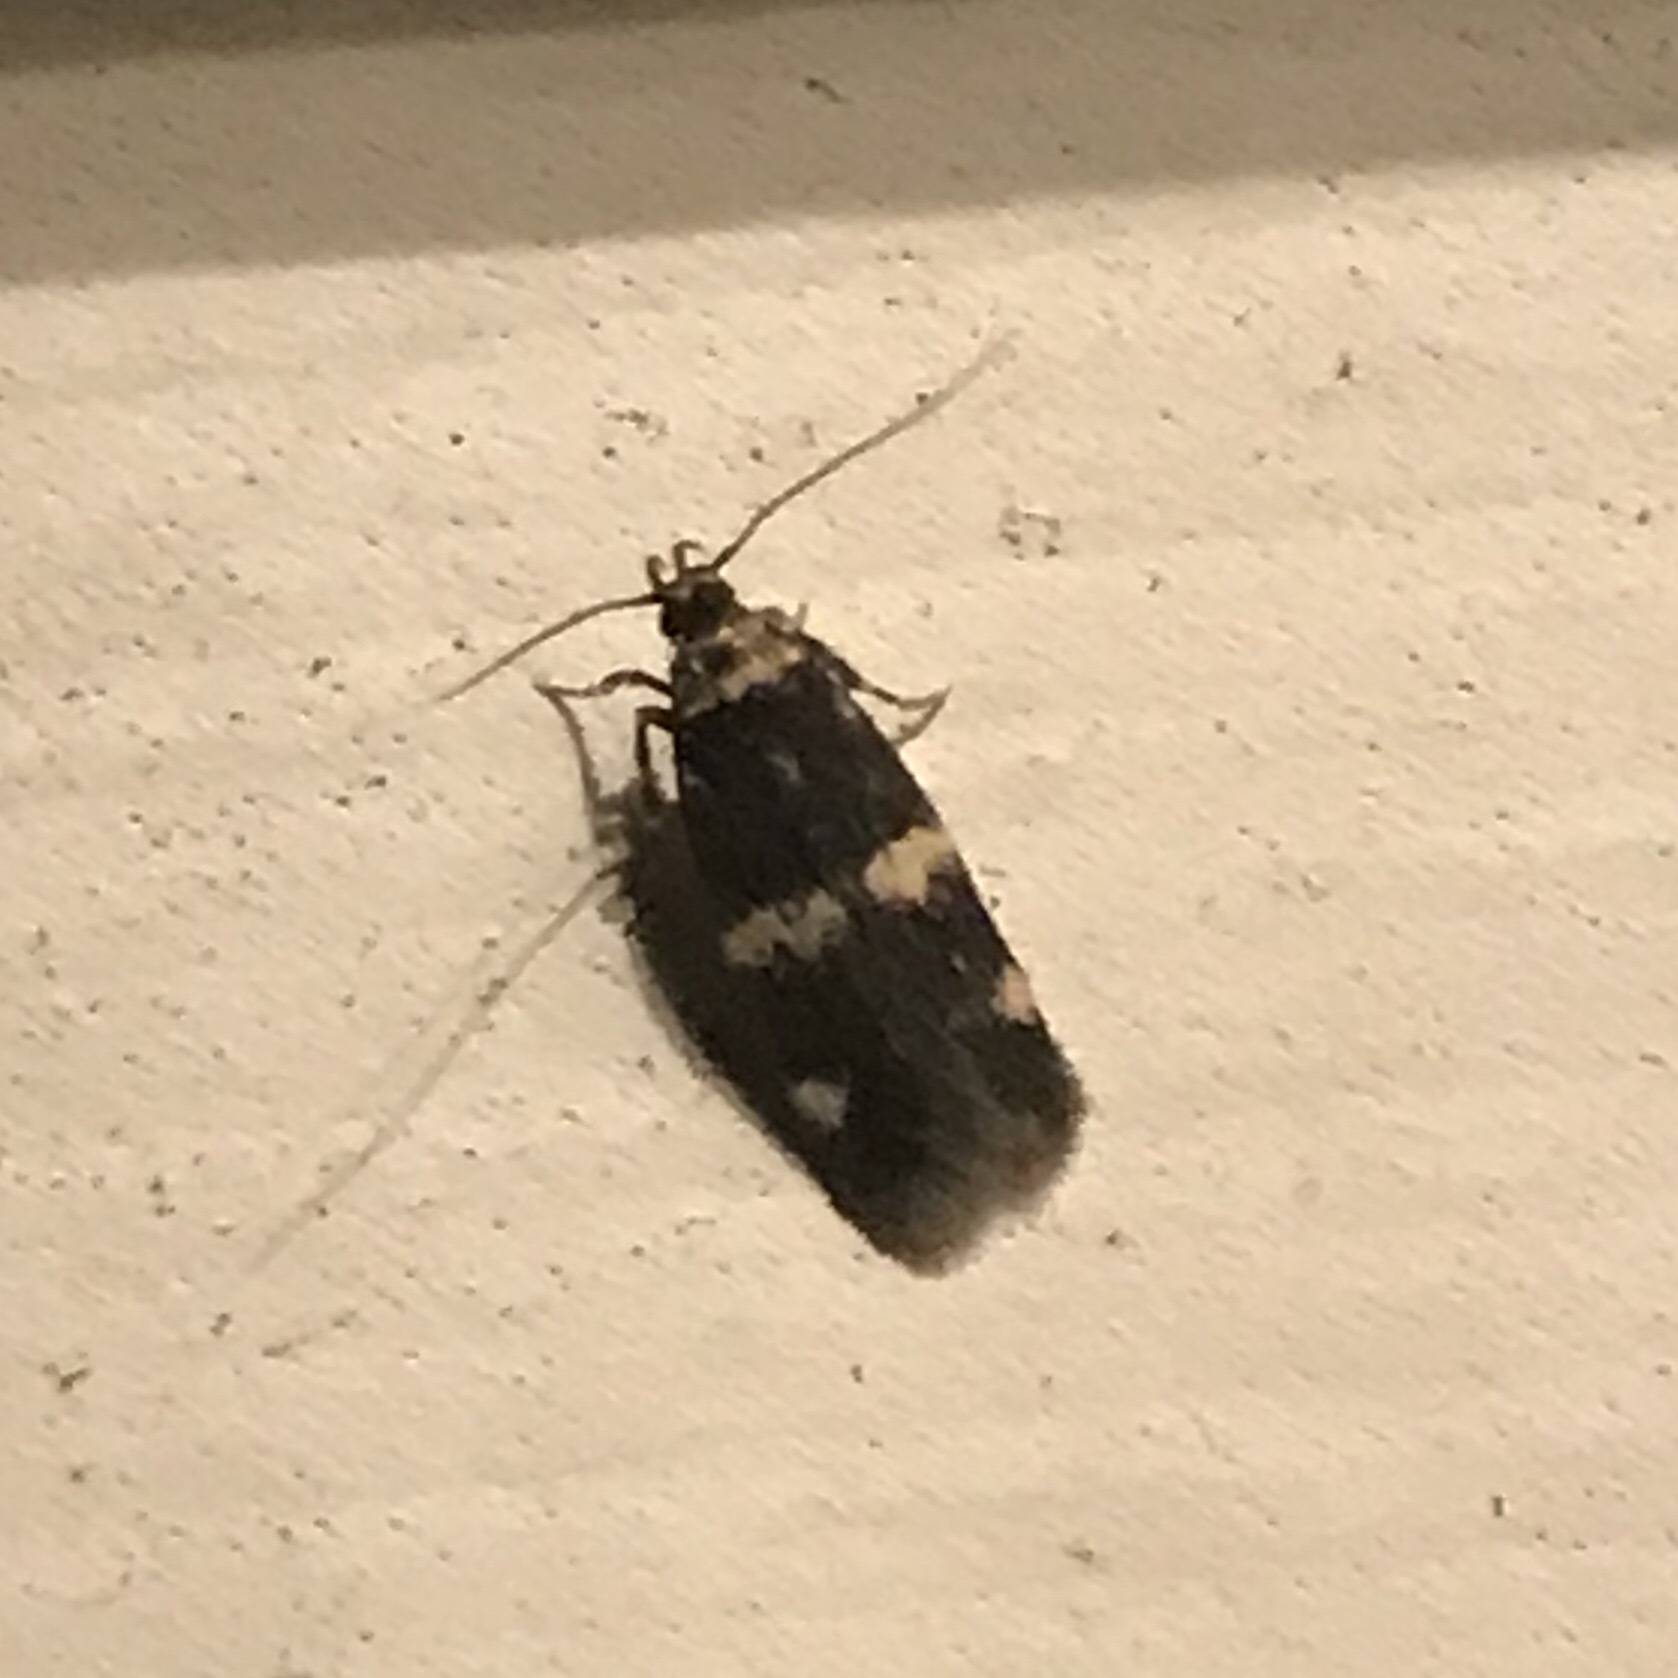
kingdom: Animalia
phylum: Arthropoda
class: Insecta
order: Lepidoptera
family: Autostichidae
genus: Oegoconia
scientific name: Oegoconia
